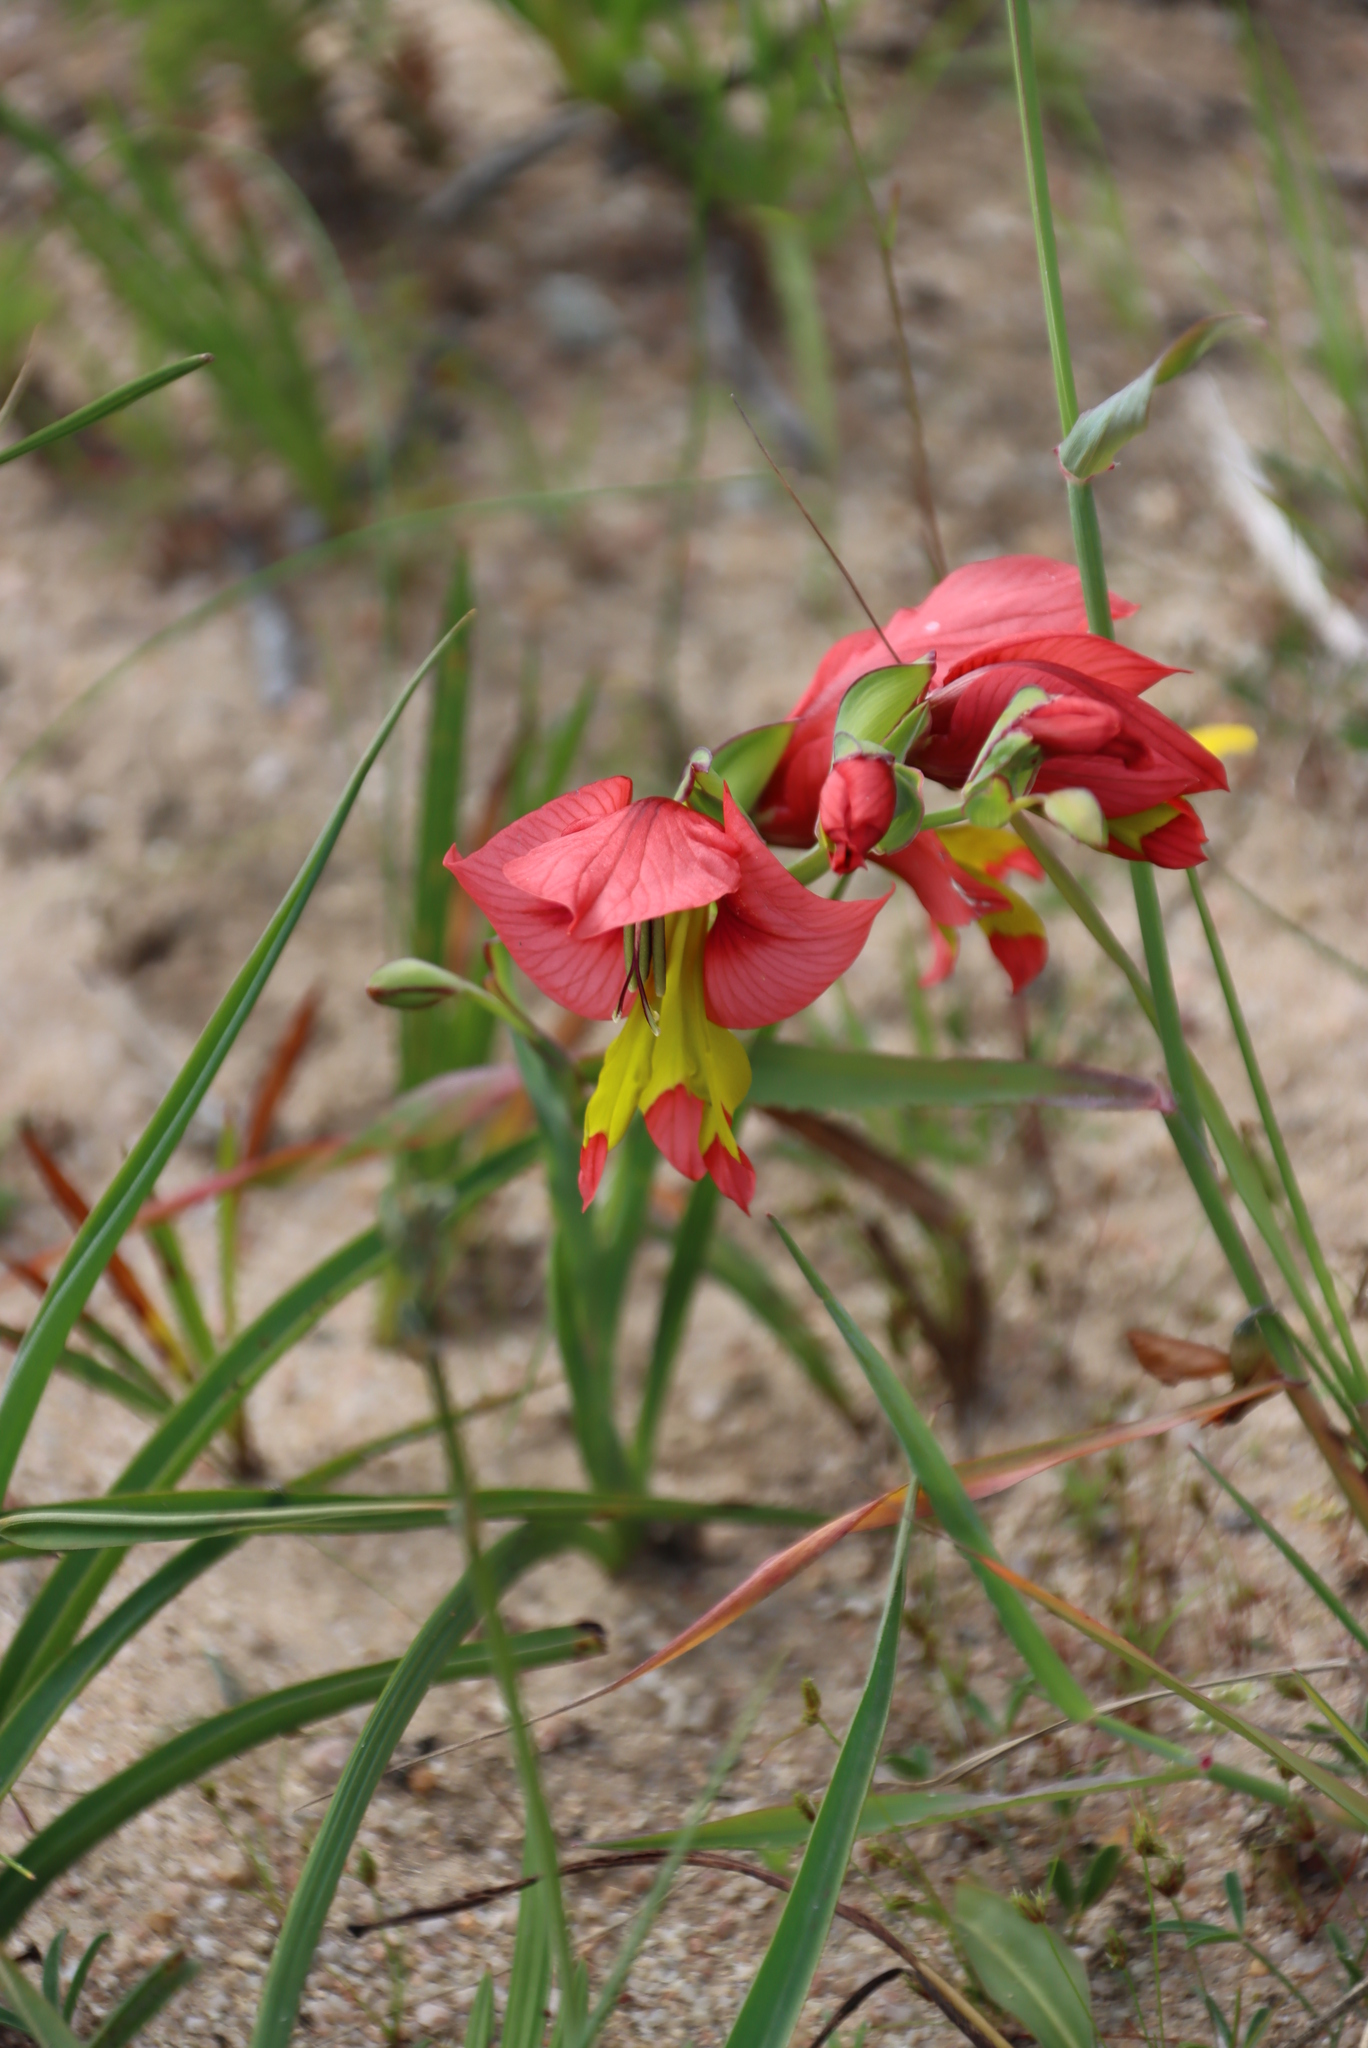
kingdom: Plantae
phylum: Tracheophyta
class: Liliopsida
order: Asparagales
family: Iridaceae
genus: Gladiolus
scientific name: Gladiolus alatus
